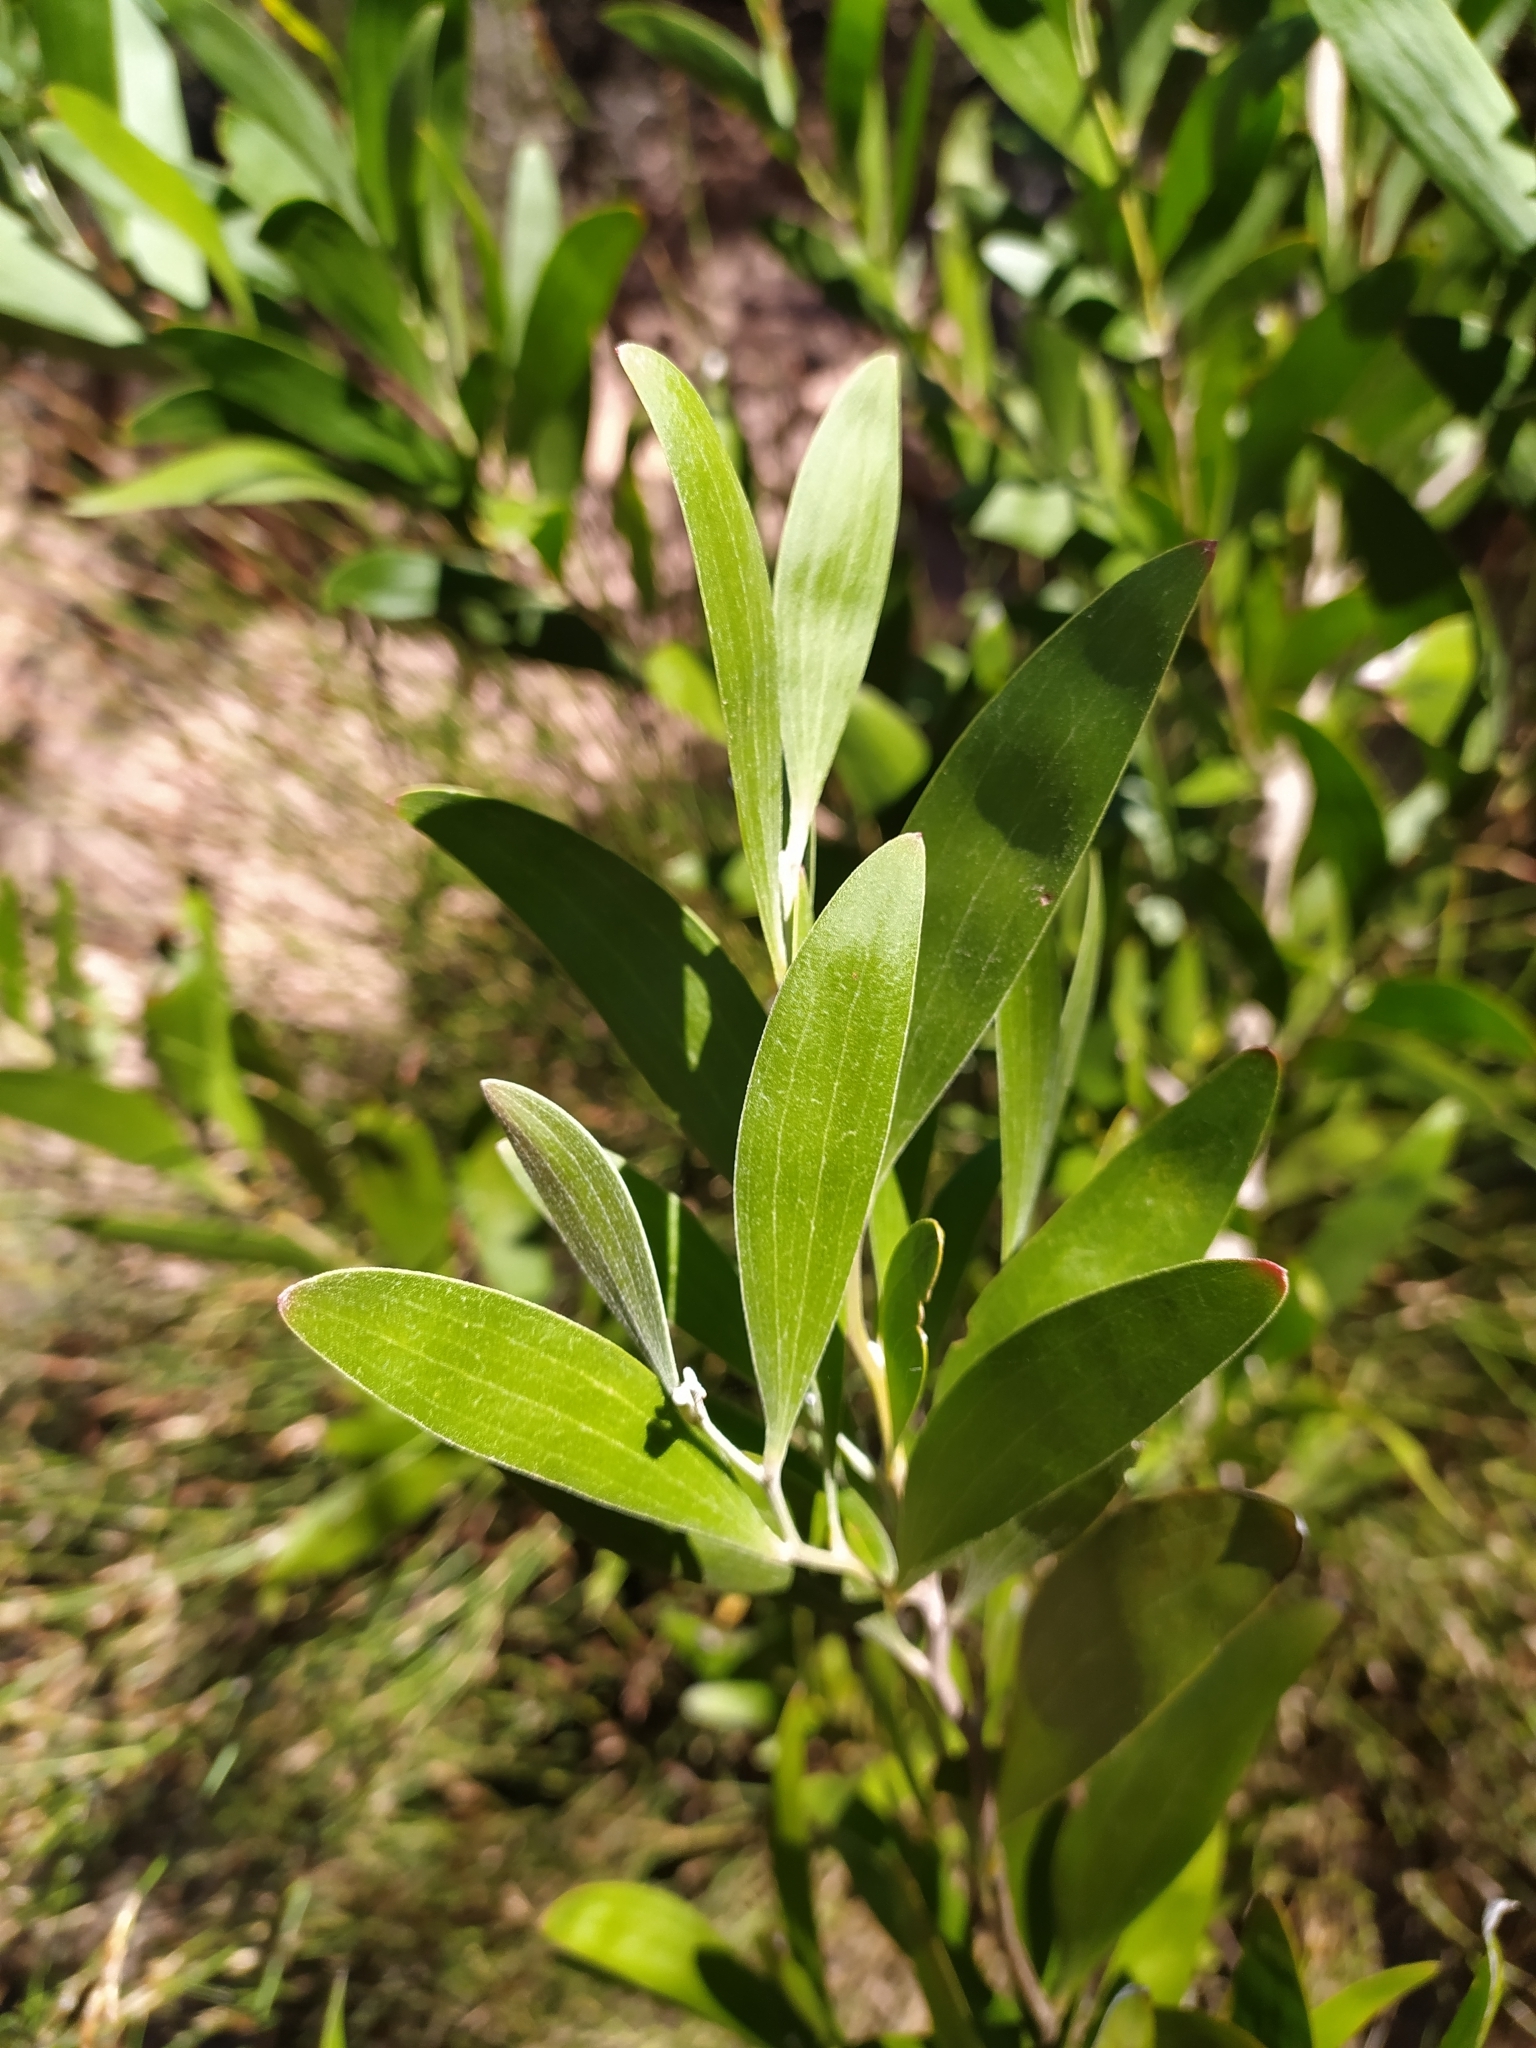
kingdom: Plantae
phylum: Tracheophyta
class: Magnoliopsida
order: Fabales
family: Fabaceae
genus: Acacia
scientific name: Acacia melanoxylon
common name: Blackwood
